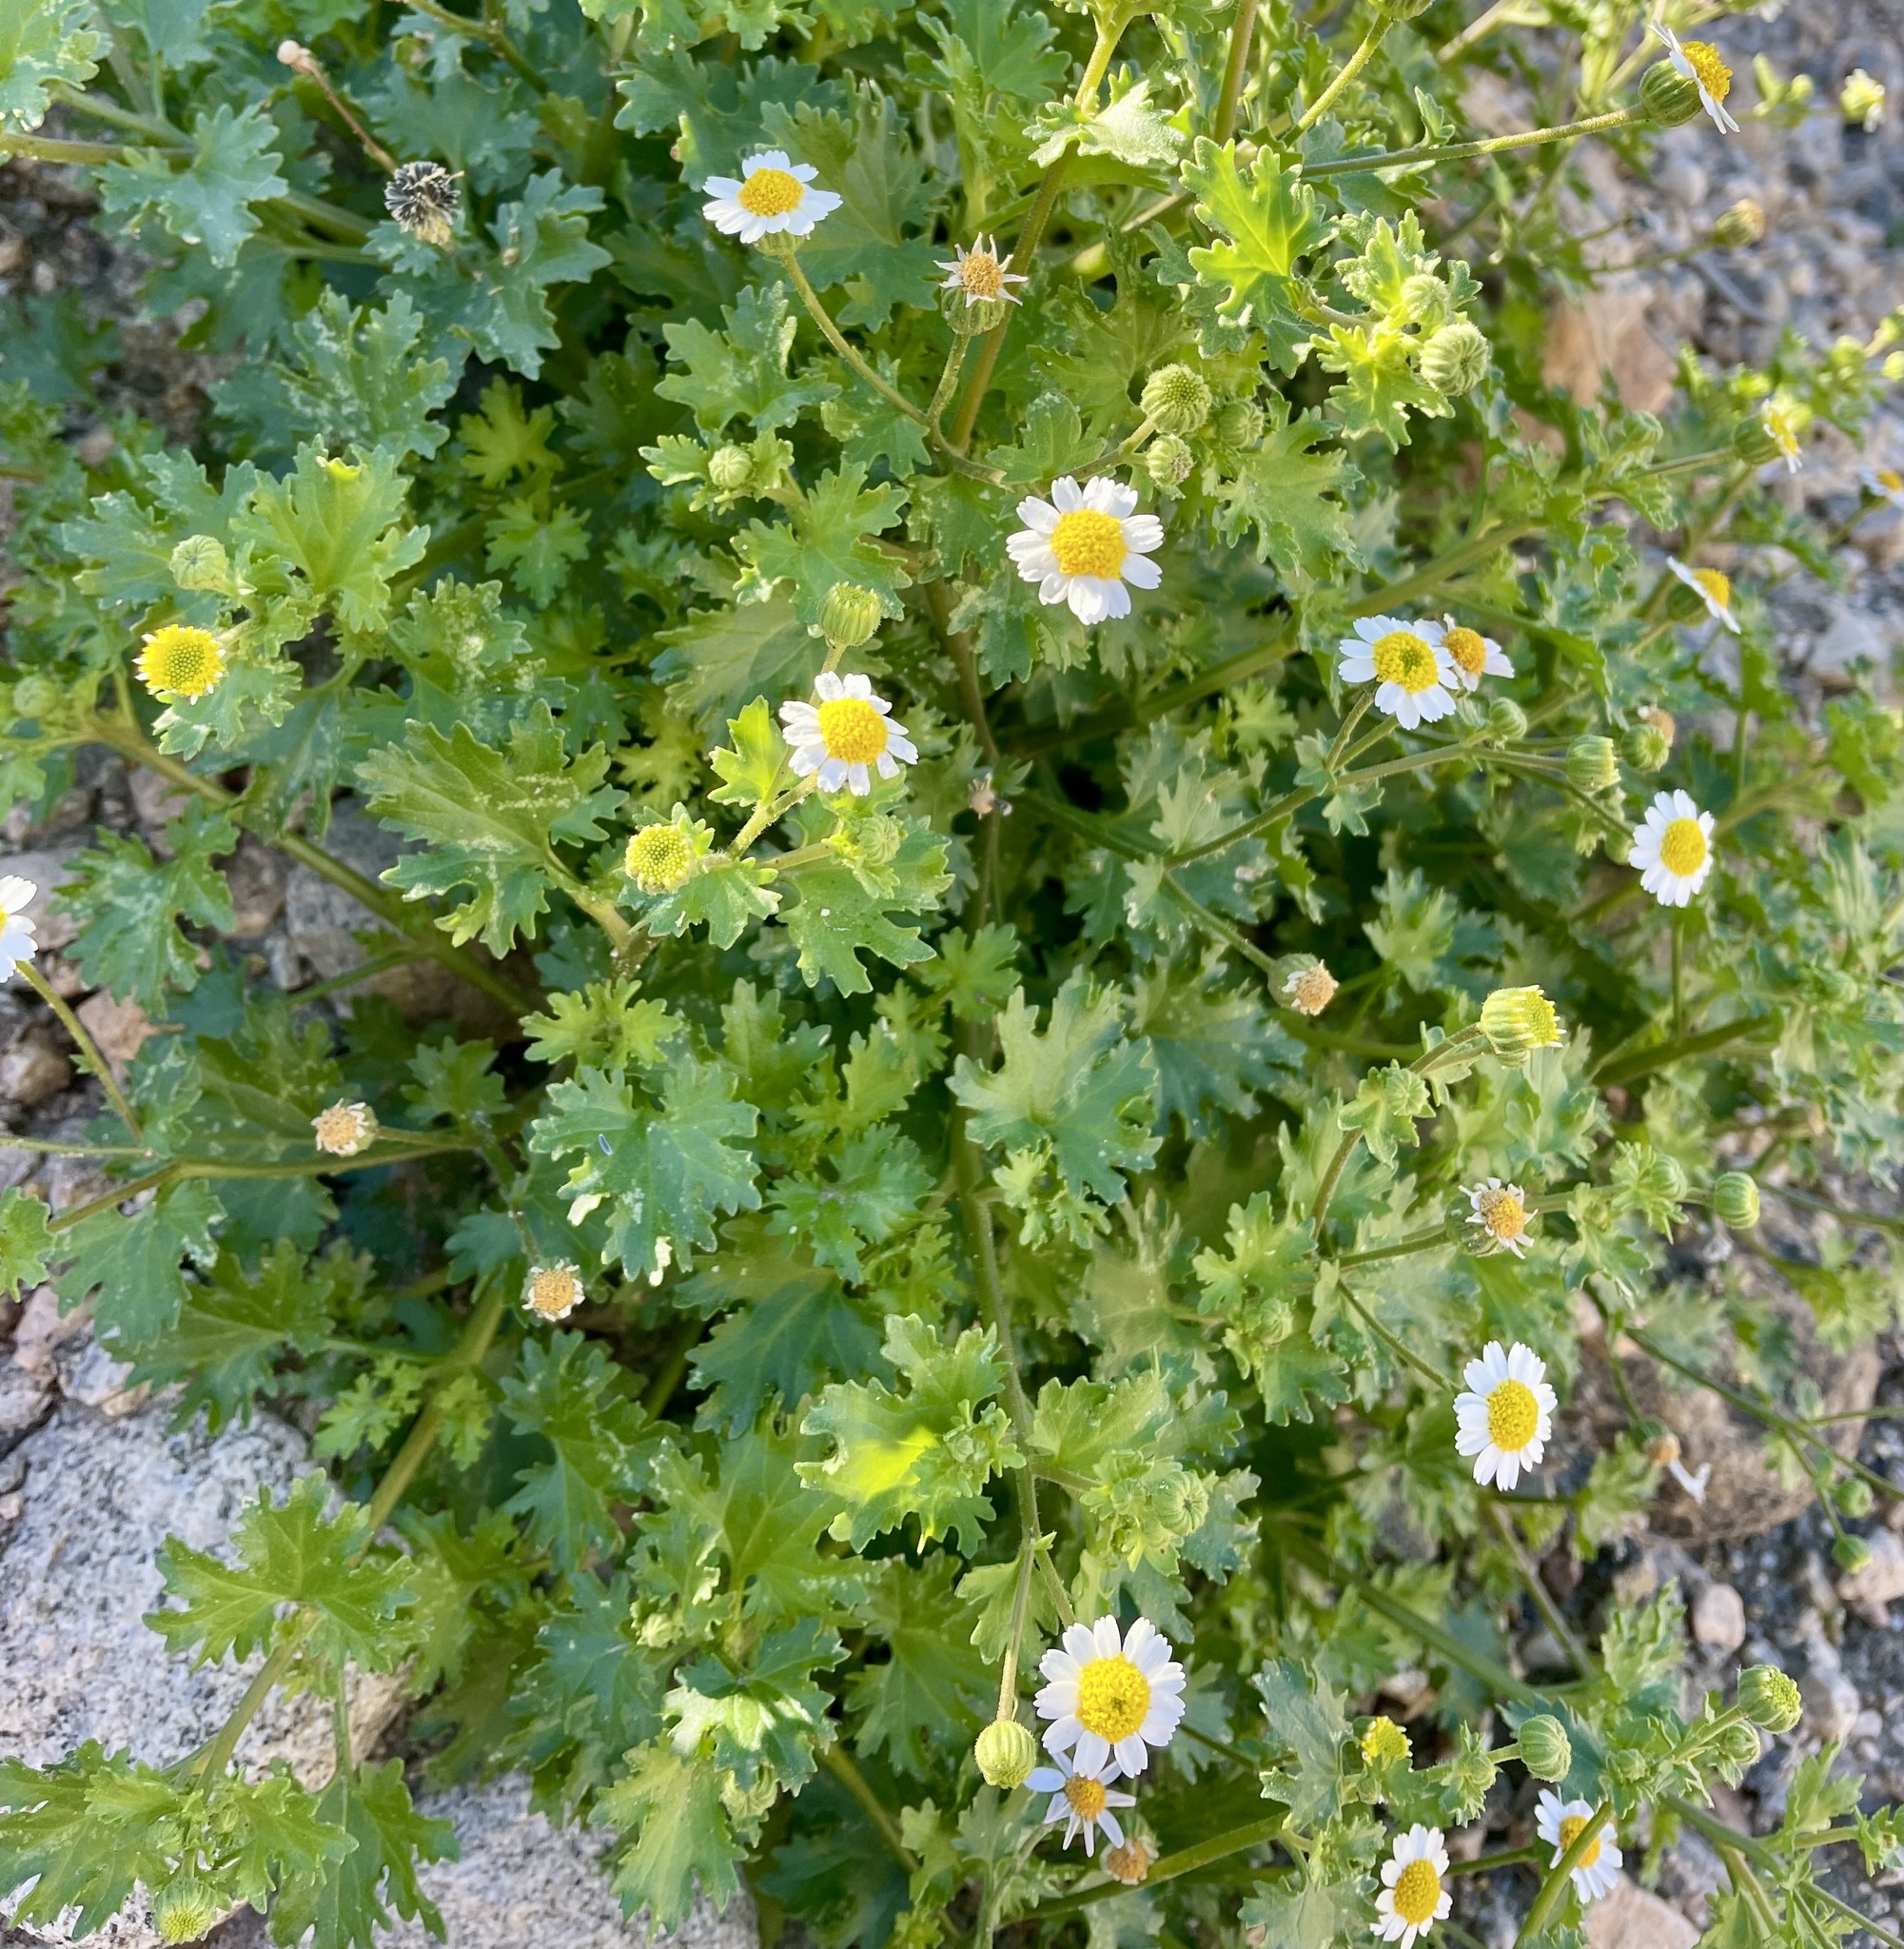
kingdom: Plantae
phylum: Tracheophyta
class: Magnoliopsida
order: Asterales
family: Asteraceae
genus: Laphamia
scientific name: Laphamia emoryi
